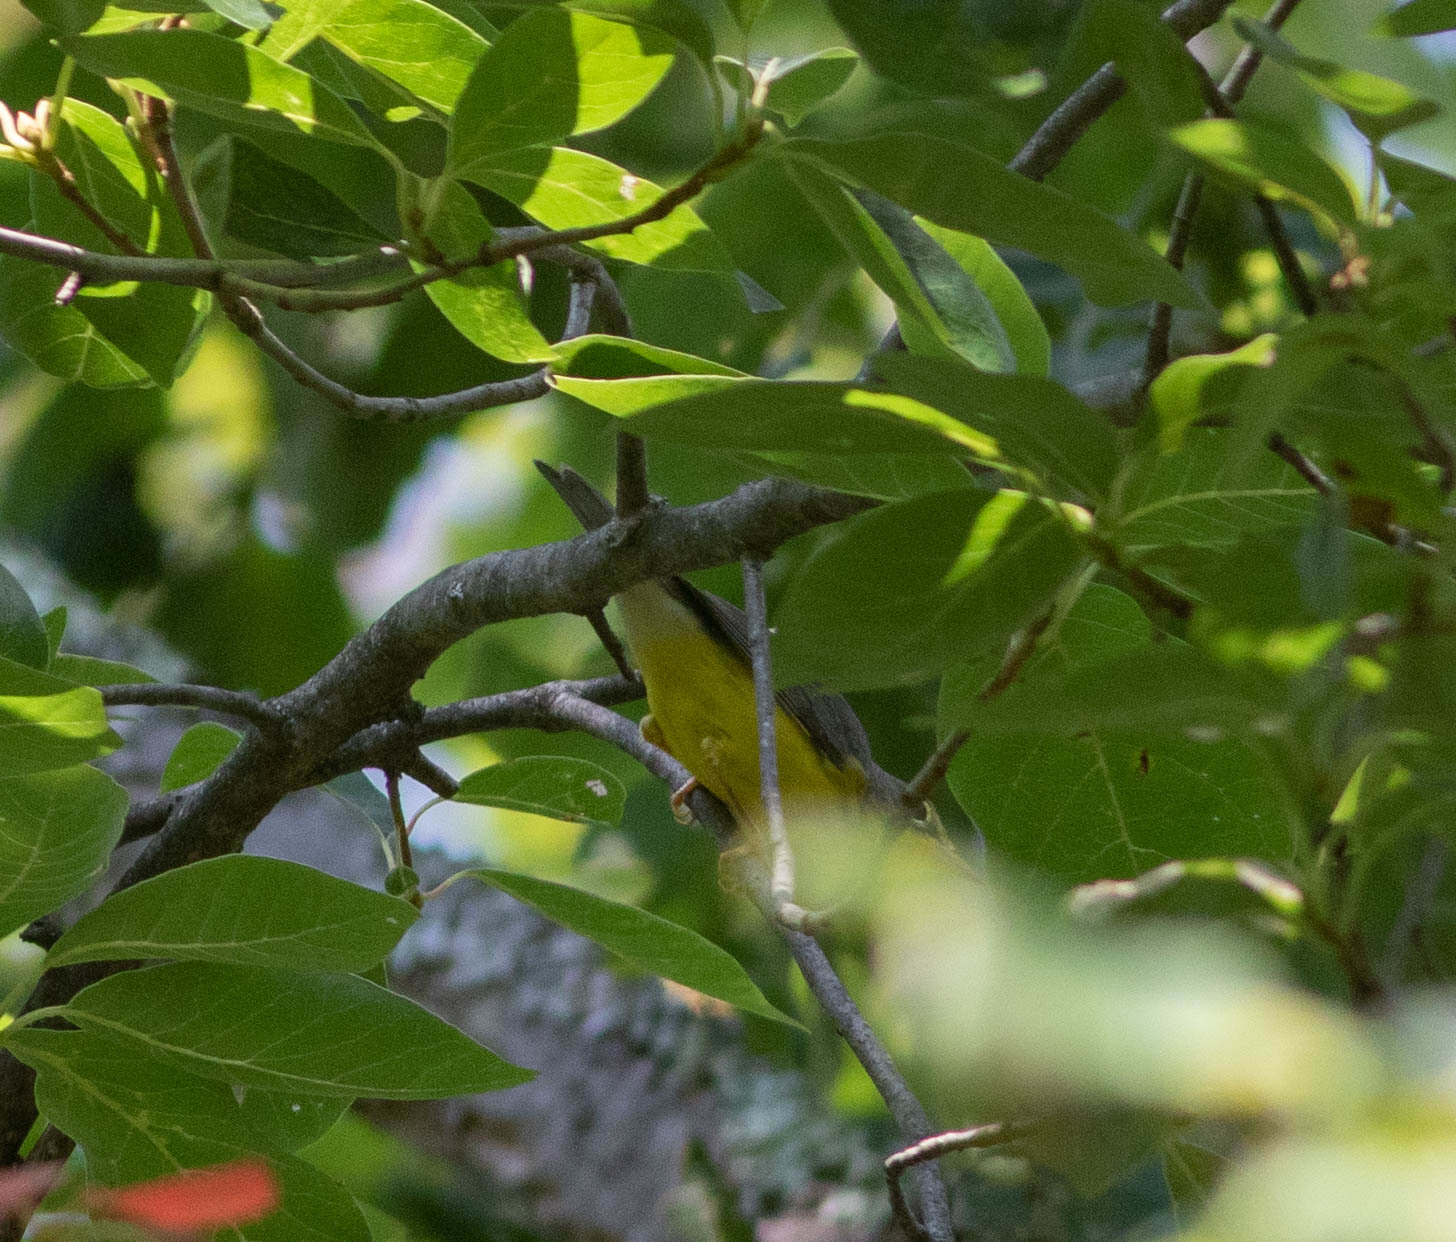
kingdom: Animalia
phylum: Chordata
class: Aves
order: Passeriformes
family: Parulidae
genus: Cardellina
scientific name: Cardellina canadensis
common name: Canada warbler
